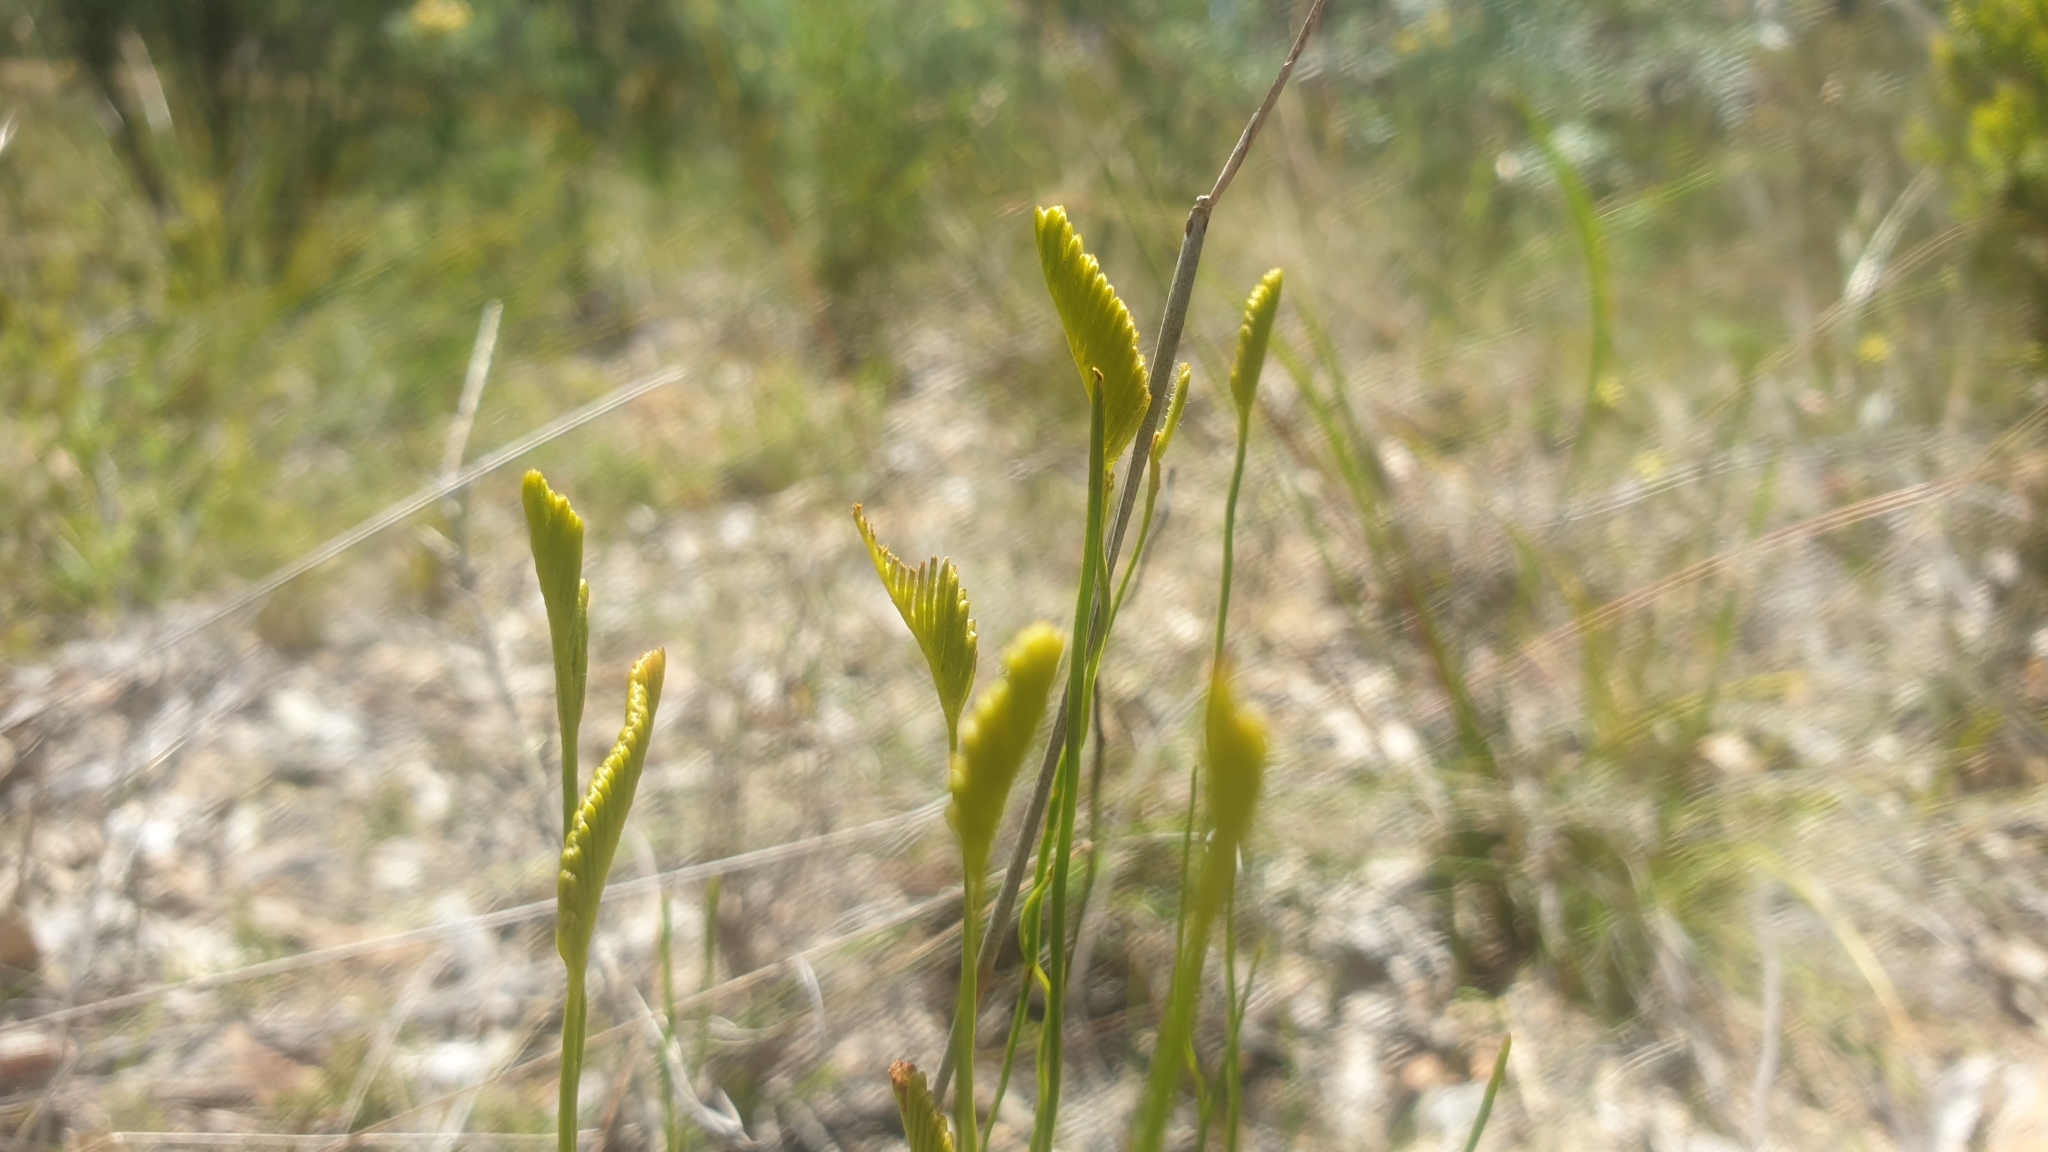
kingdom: Plantae
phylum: Tracheophyta
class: Polypodiopsida
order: Schizaeales
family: Schizaeaceae
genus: Schizaea
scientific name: Schizaea bifida
